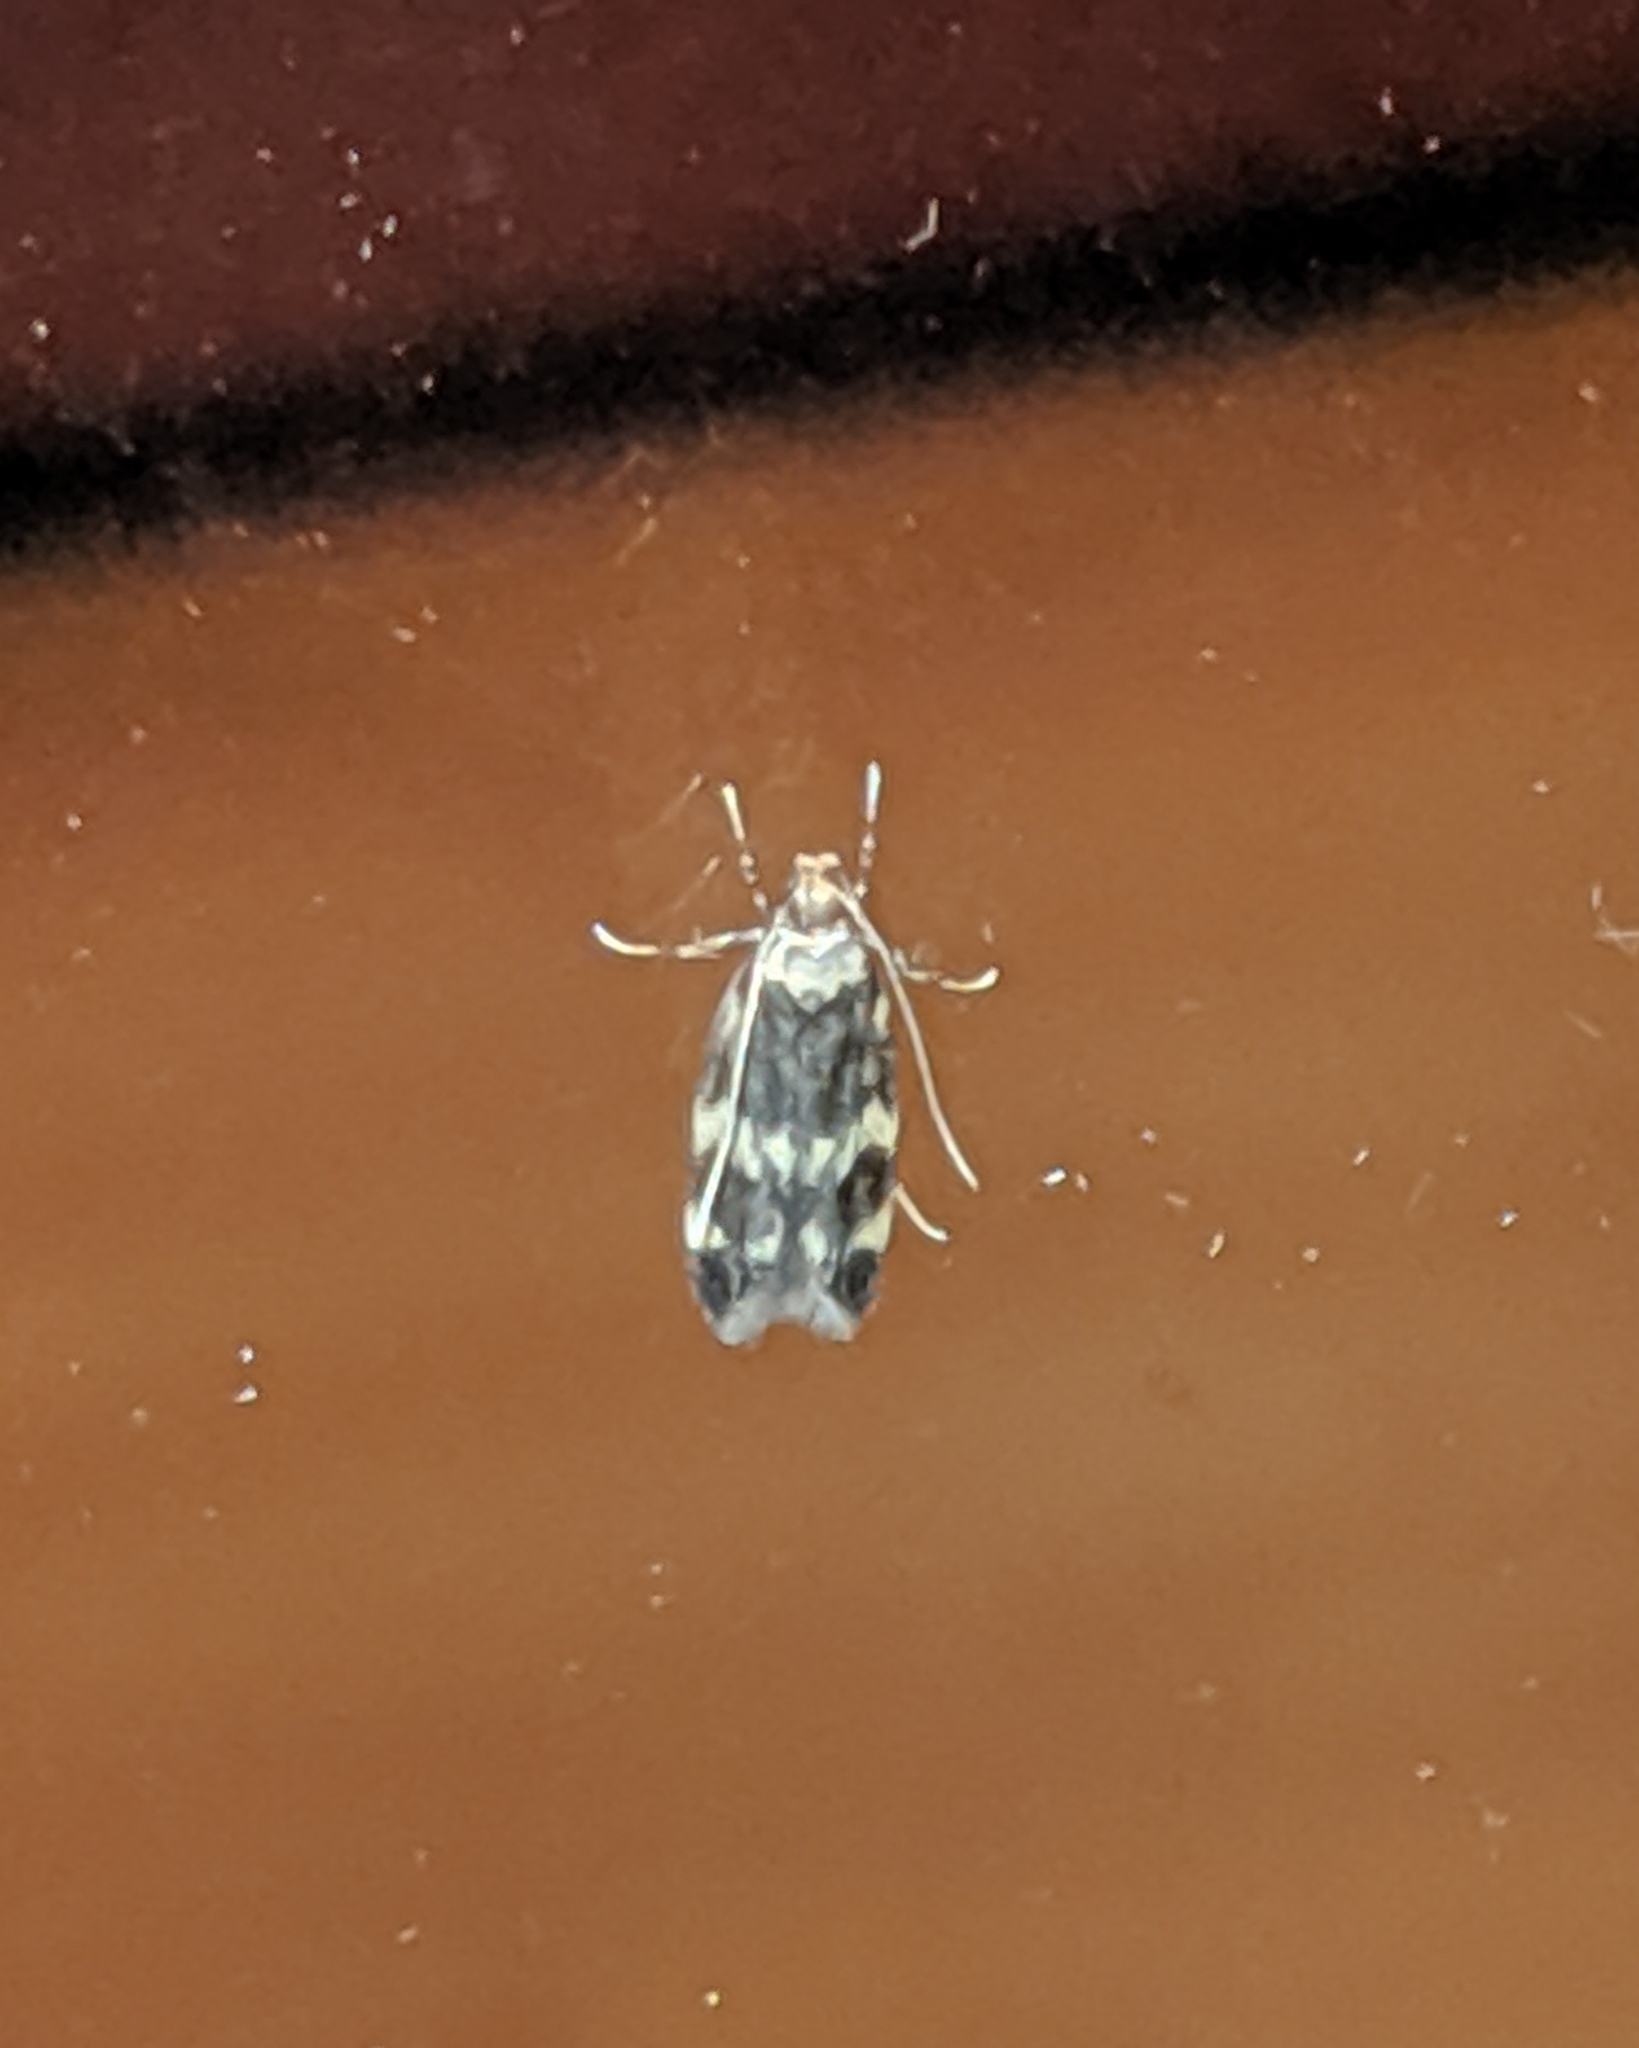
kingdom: Animalia
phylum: Arthropoda
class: Insecta
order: Lepidoptera
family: Autostichidae
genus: Oegoconia
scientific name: Oegoconia quadripuncta
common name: Four-spotted obscure
